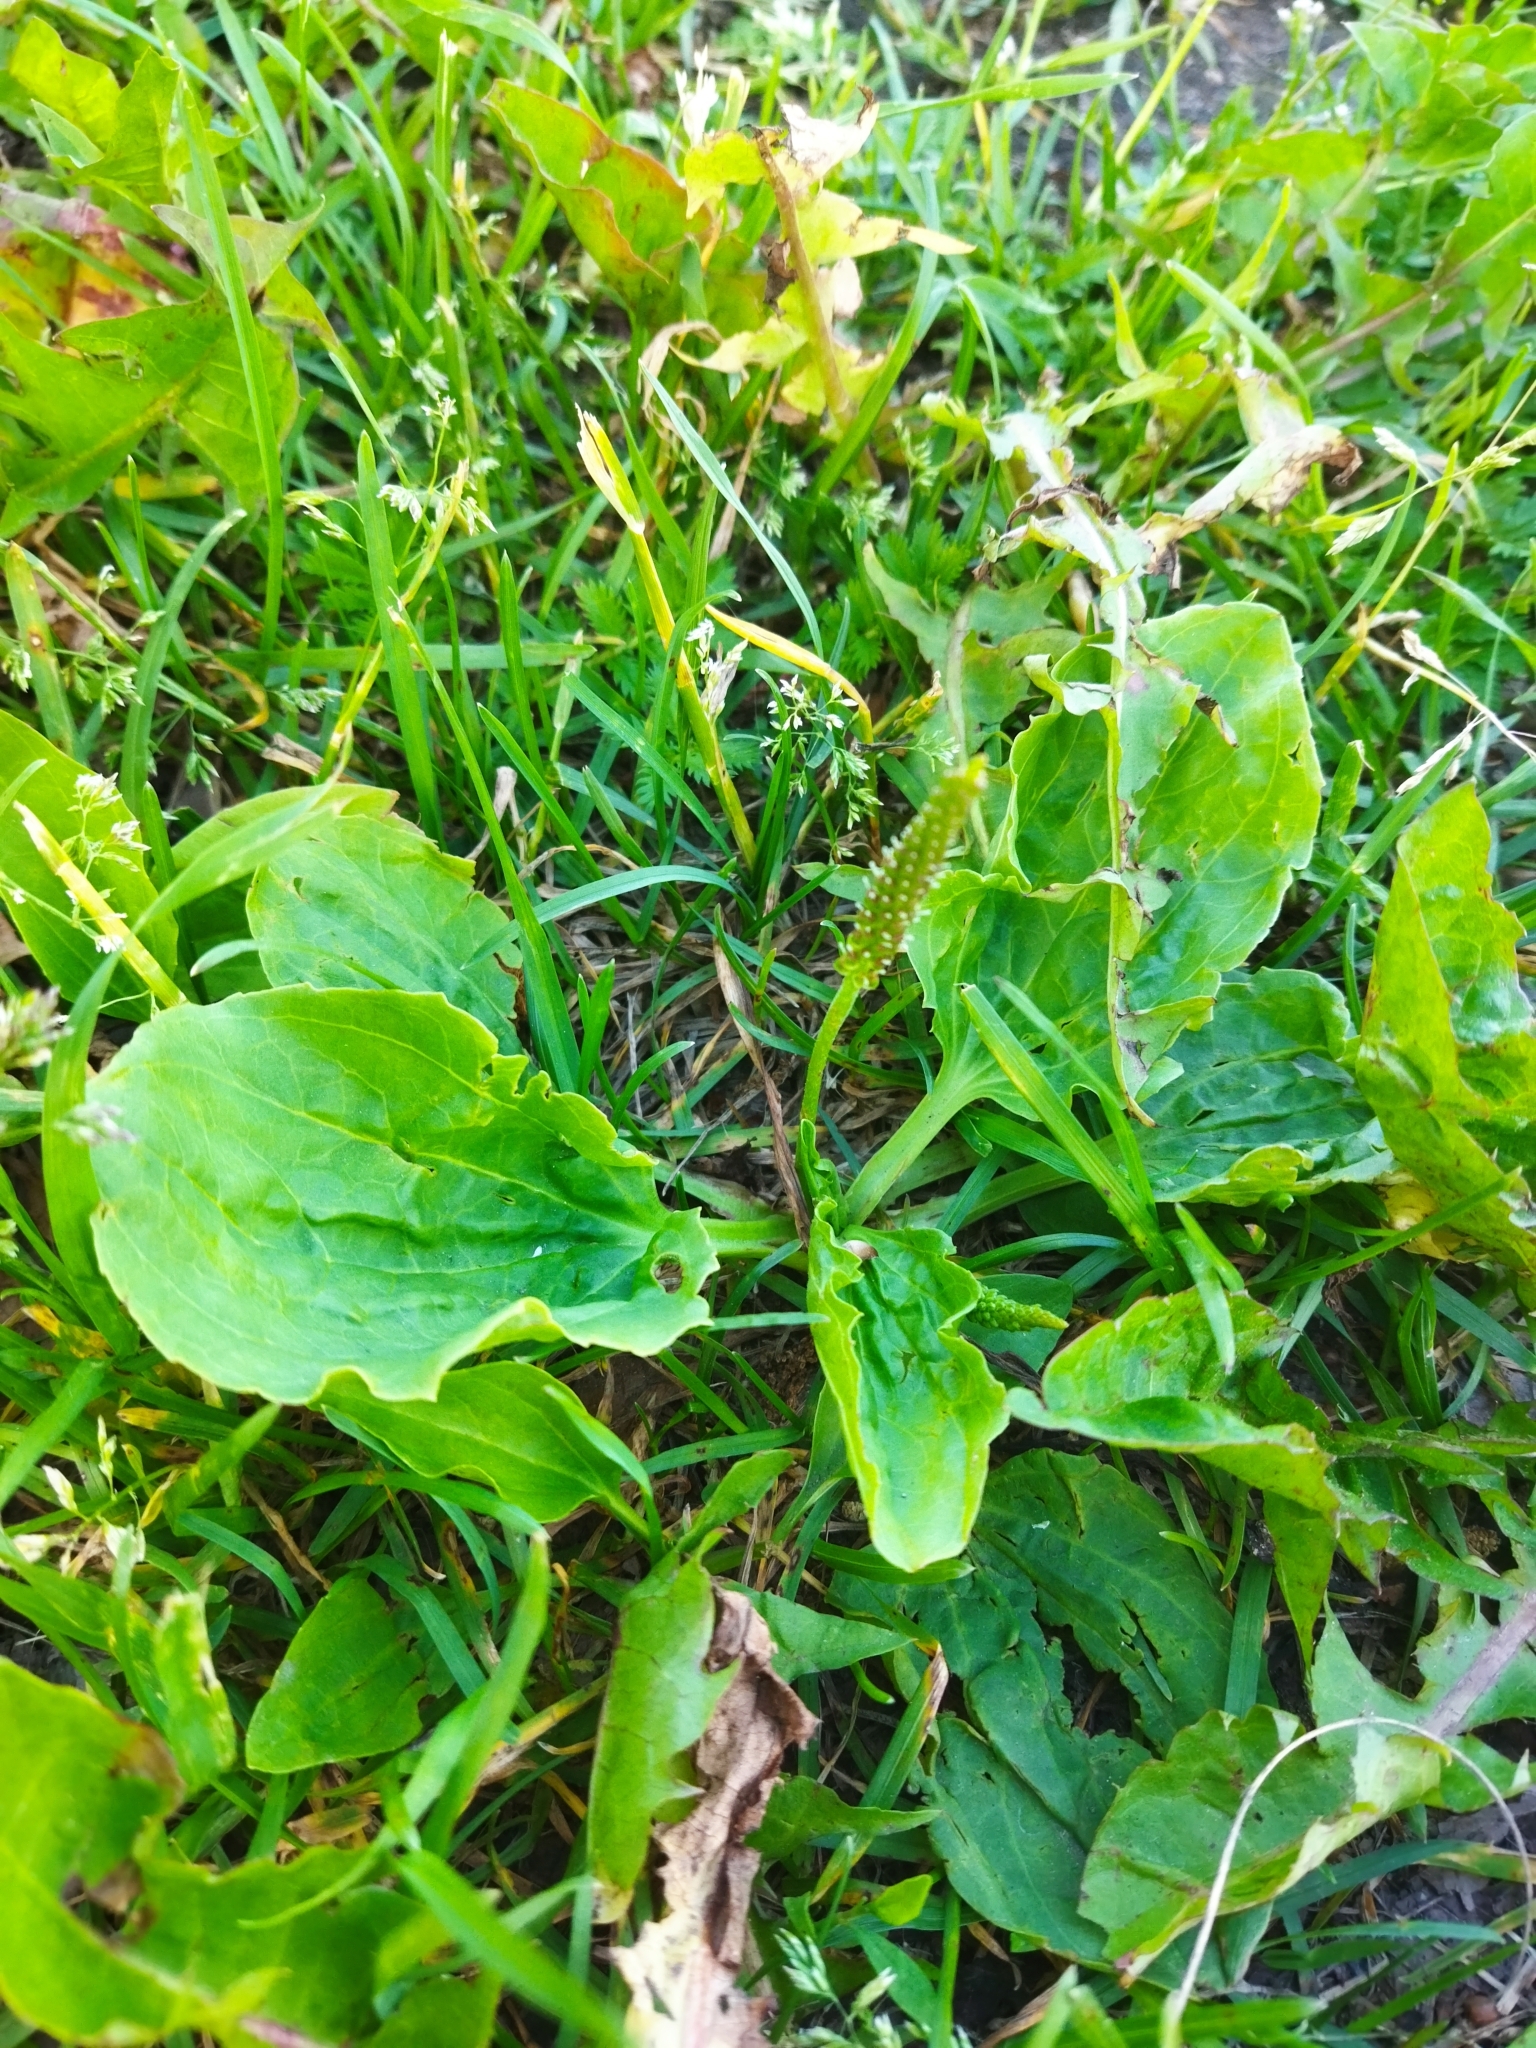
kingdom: Plantae
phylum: Tracheophyta
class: Magnoliopsida
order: Lamiales
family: Plantaginaceae
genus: Plantago
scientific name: Plantago major
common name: Common plantain
